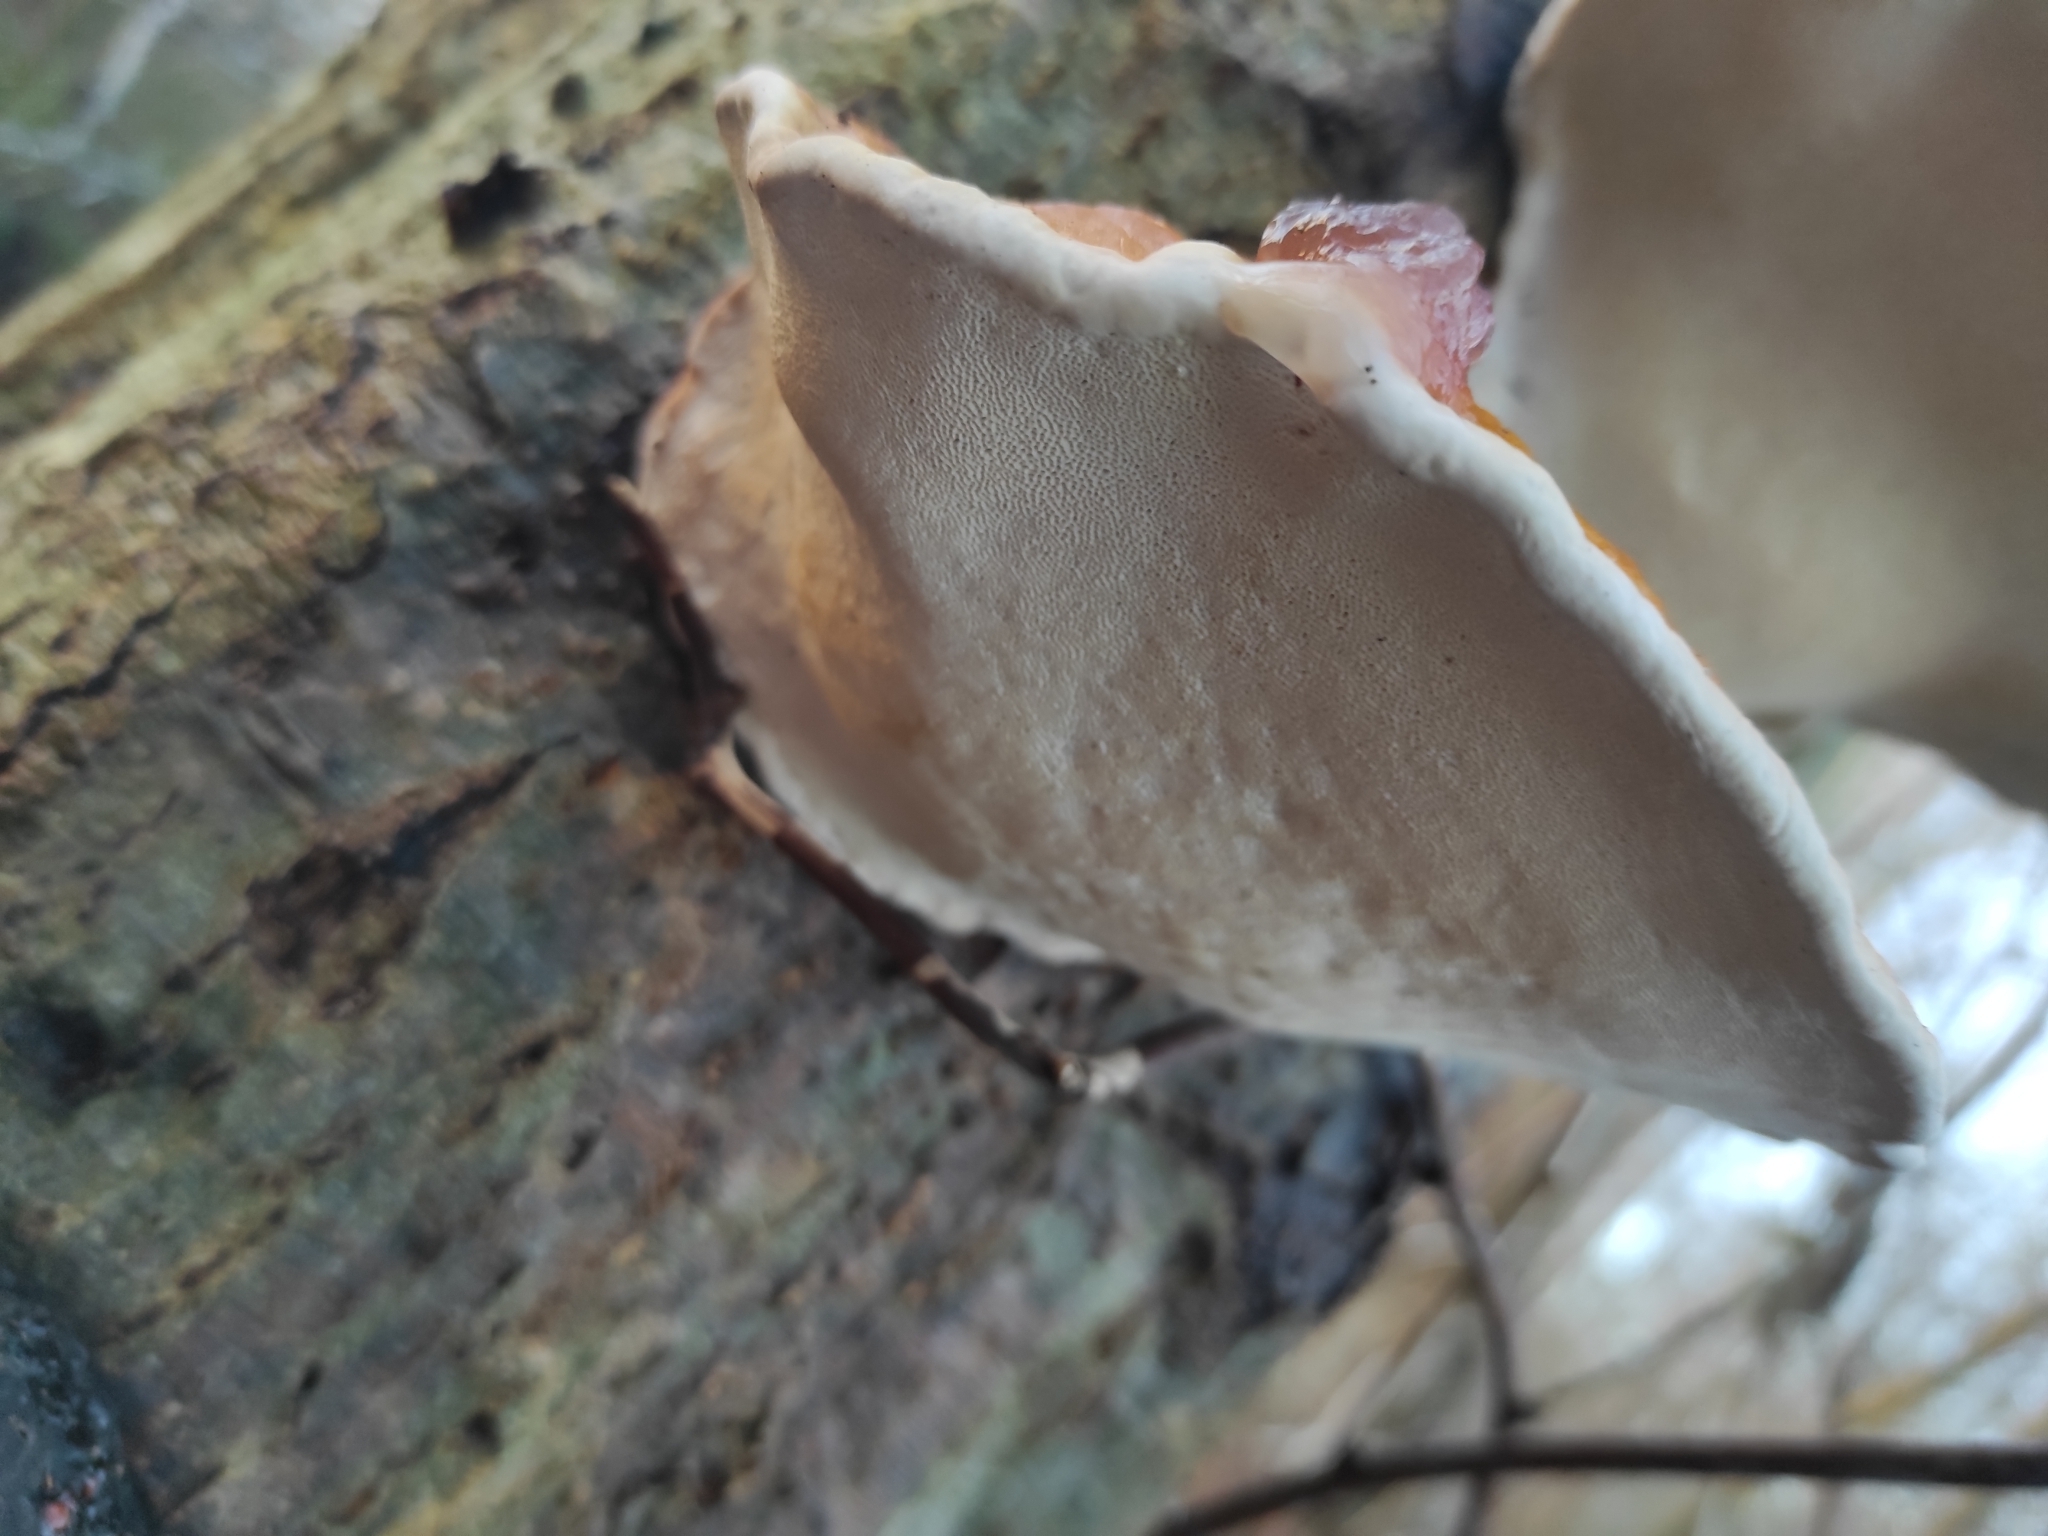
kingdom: Fungi
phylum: Basidiomycota
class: Agaricomycetes
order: Polyporales
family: Fomitopsidaceae
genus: Fomitopsis
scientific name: Fomitopsis pinicola
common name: Red-belted bracket
